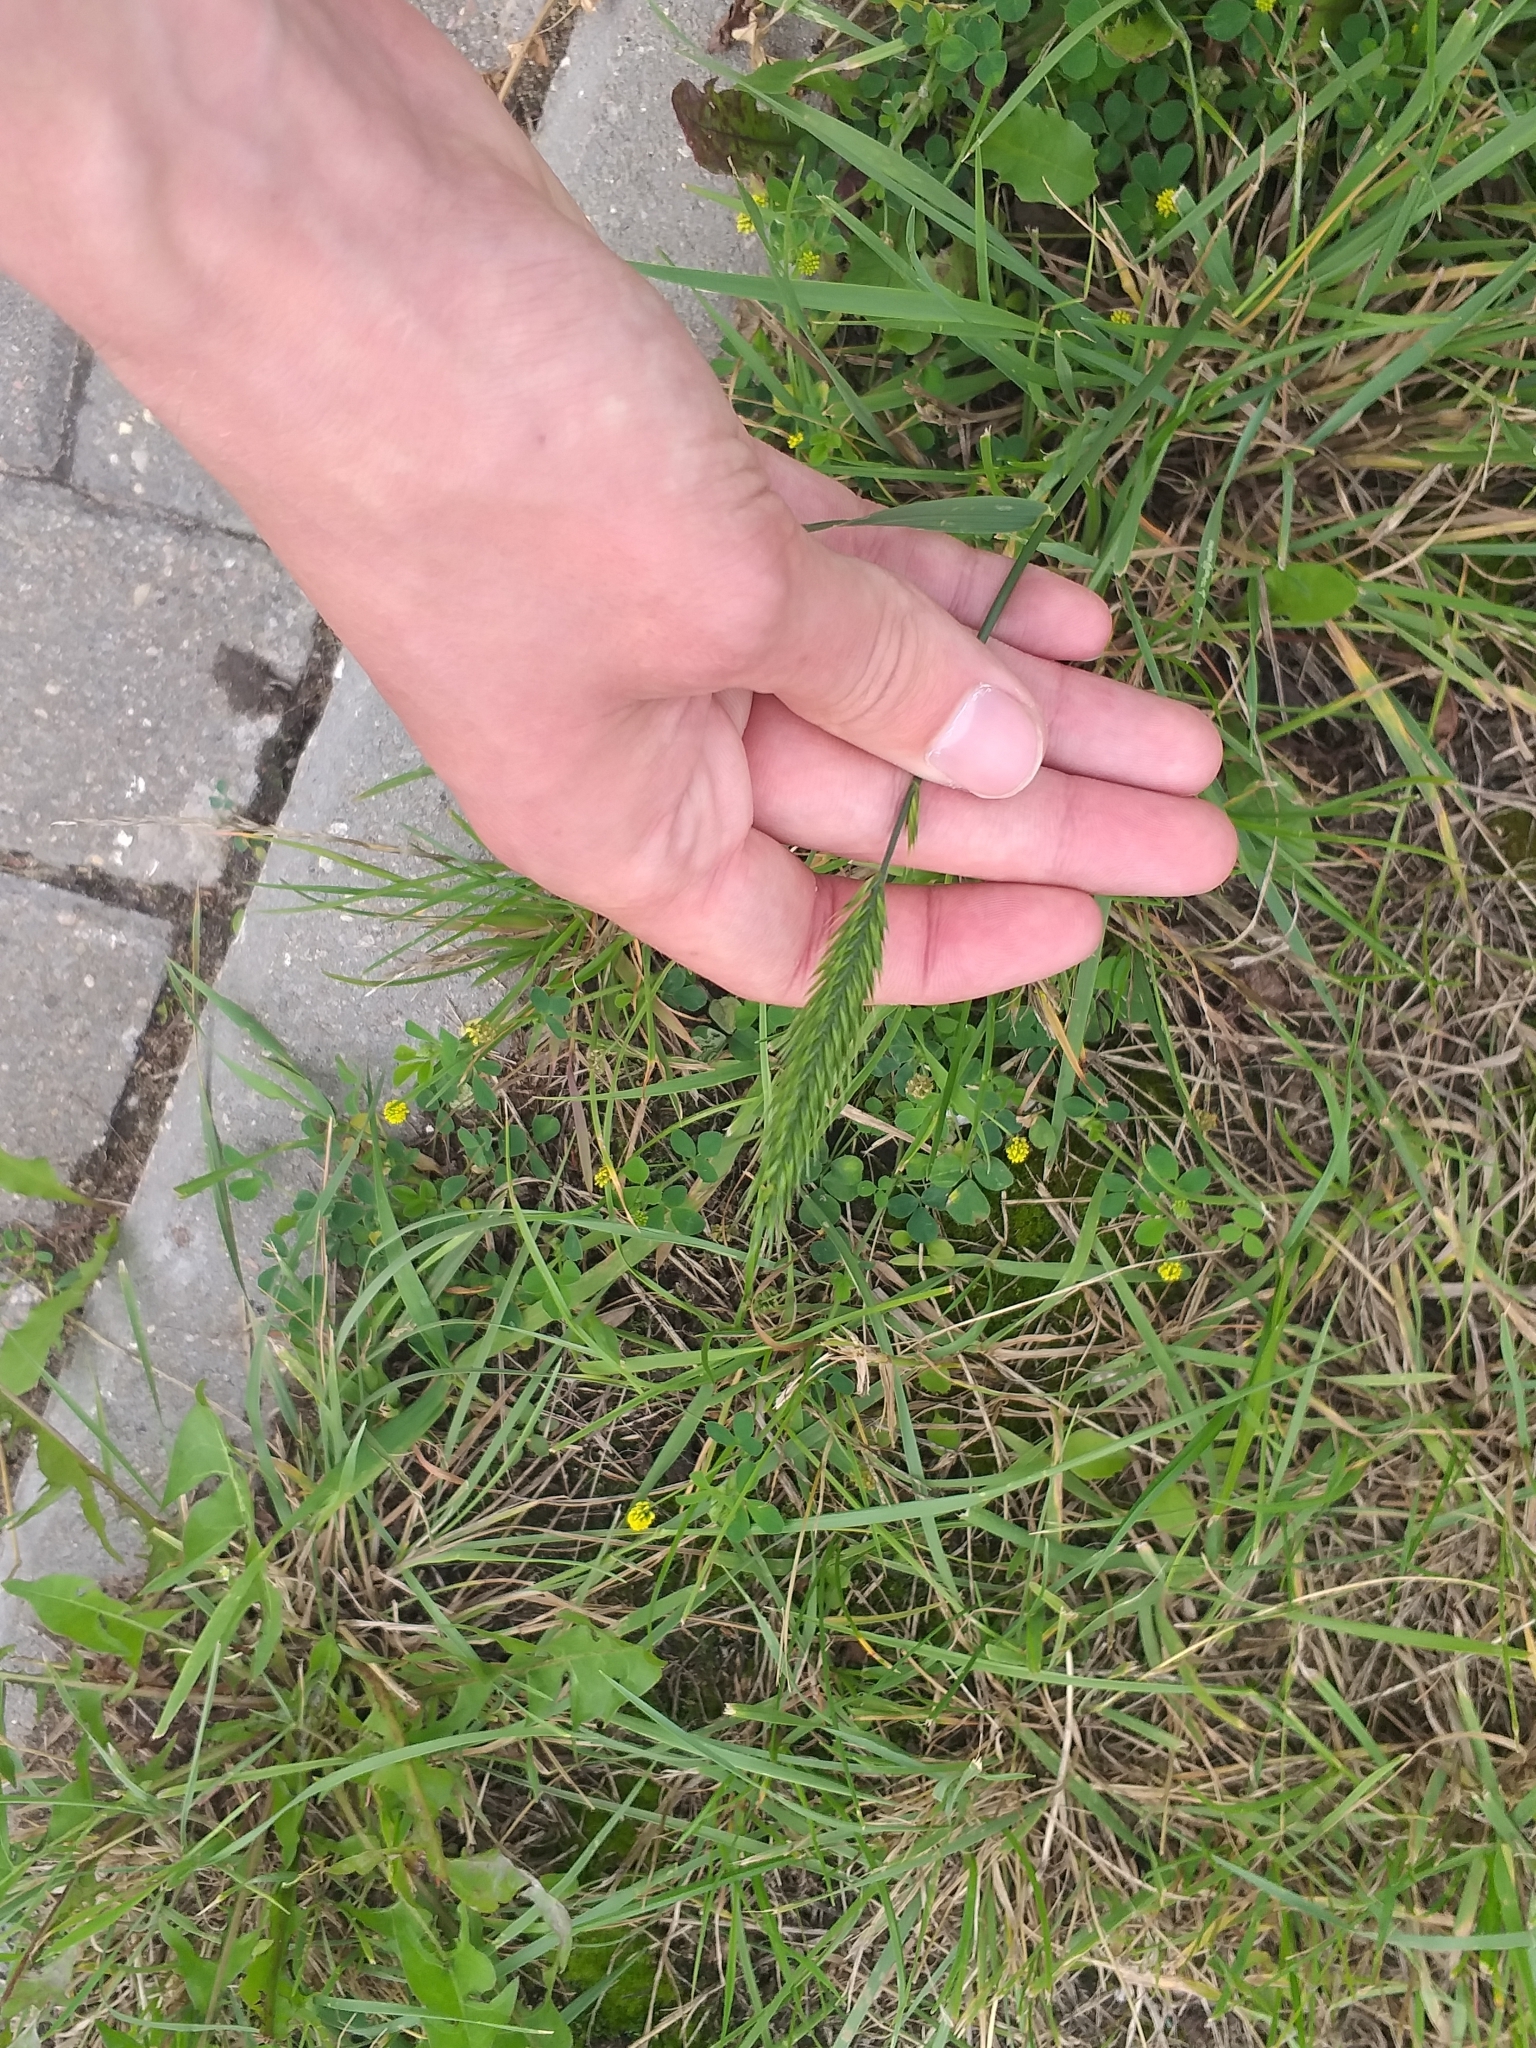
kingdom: Plantae
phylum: Tracheophyta
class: Liliopsida
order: Poales
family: Poaceae
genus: Agropyron
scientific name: Agropyron cristatum
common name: Crested wheatgrass
